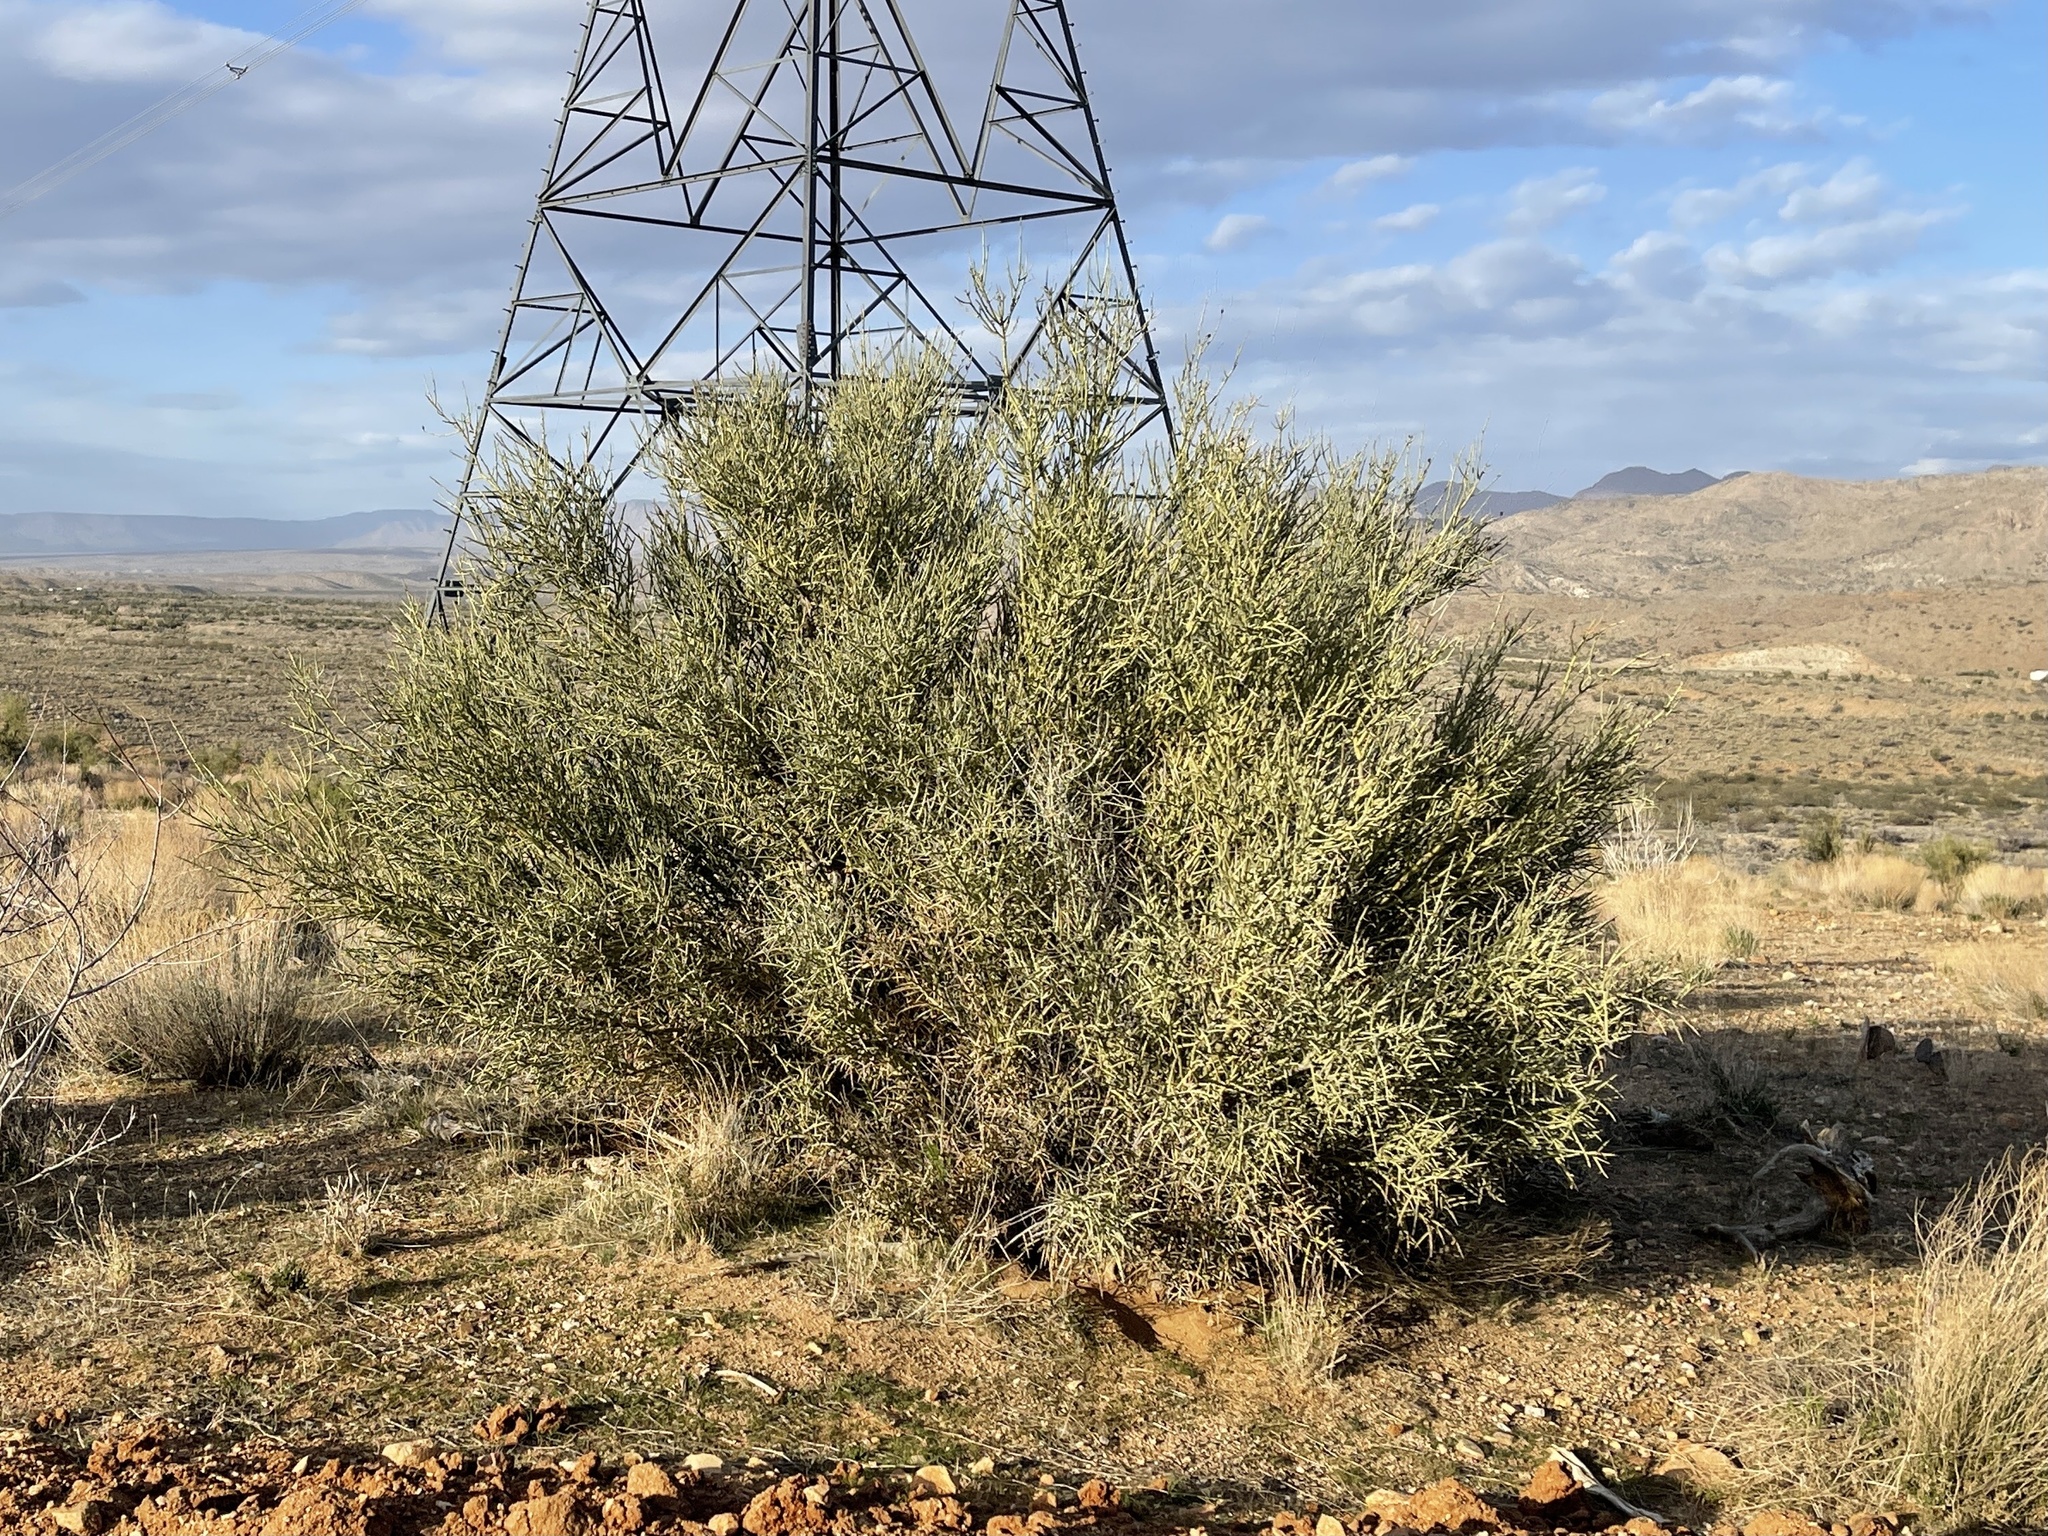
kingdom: Plantae
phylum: Tracheophyta
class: Magnoliopsida
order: Celastrales
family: Celastraceae
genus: Canotia
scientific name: Canotia holacantha
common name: Crucifixion thorns
